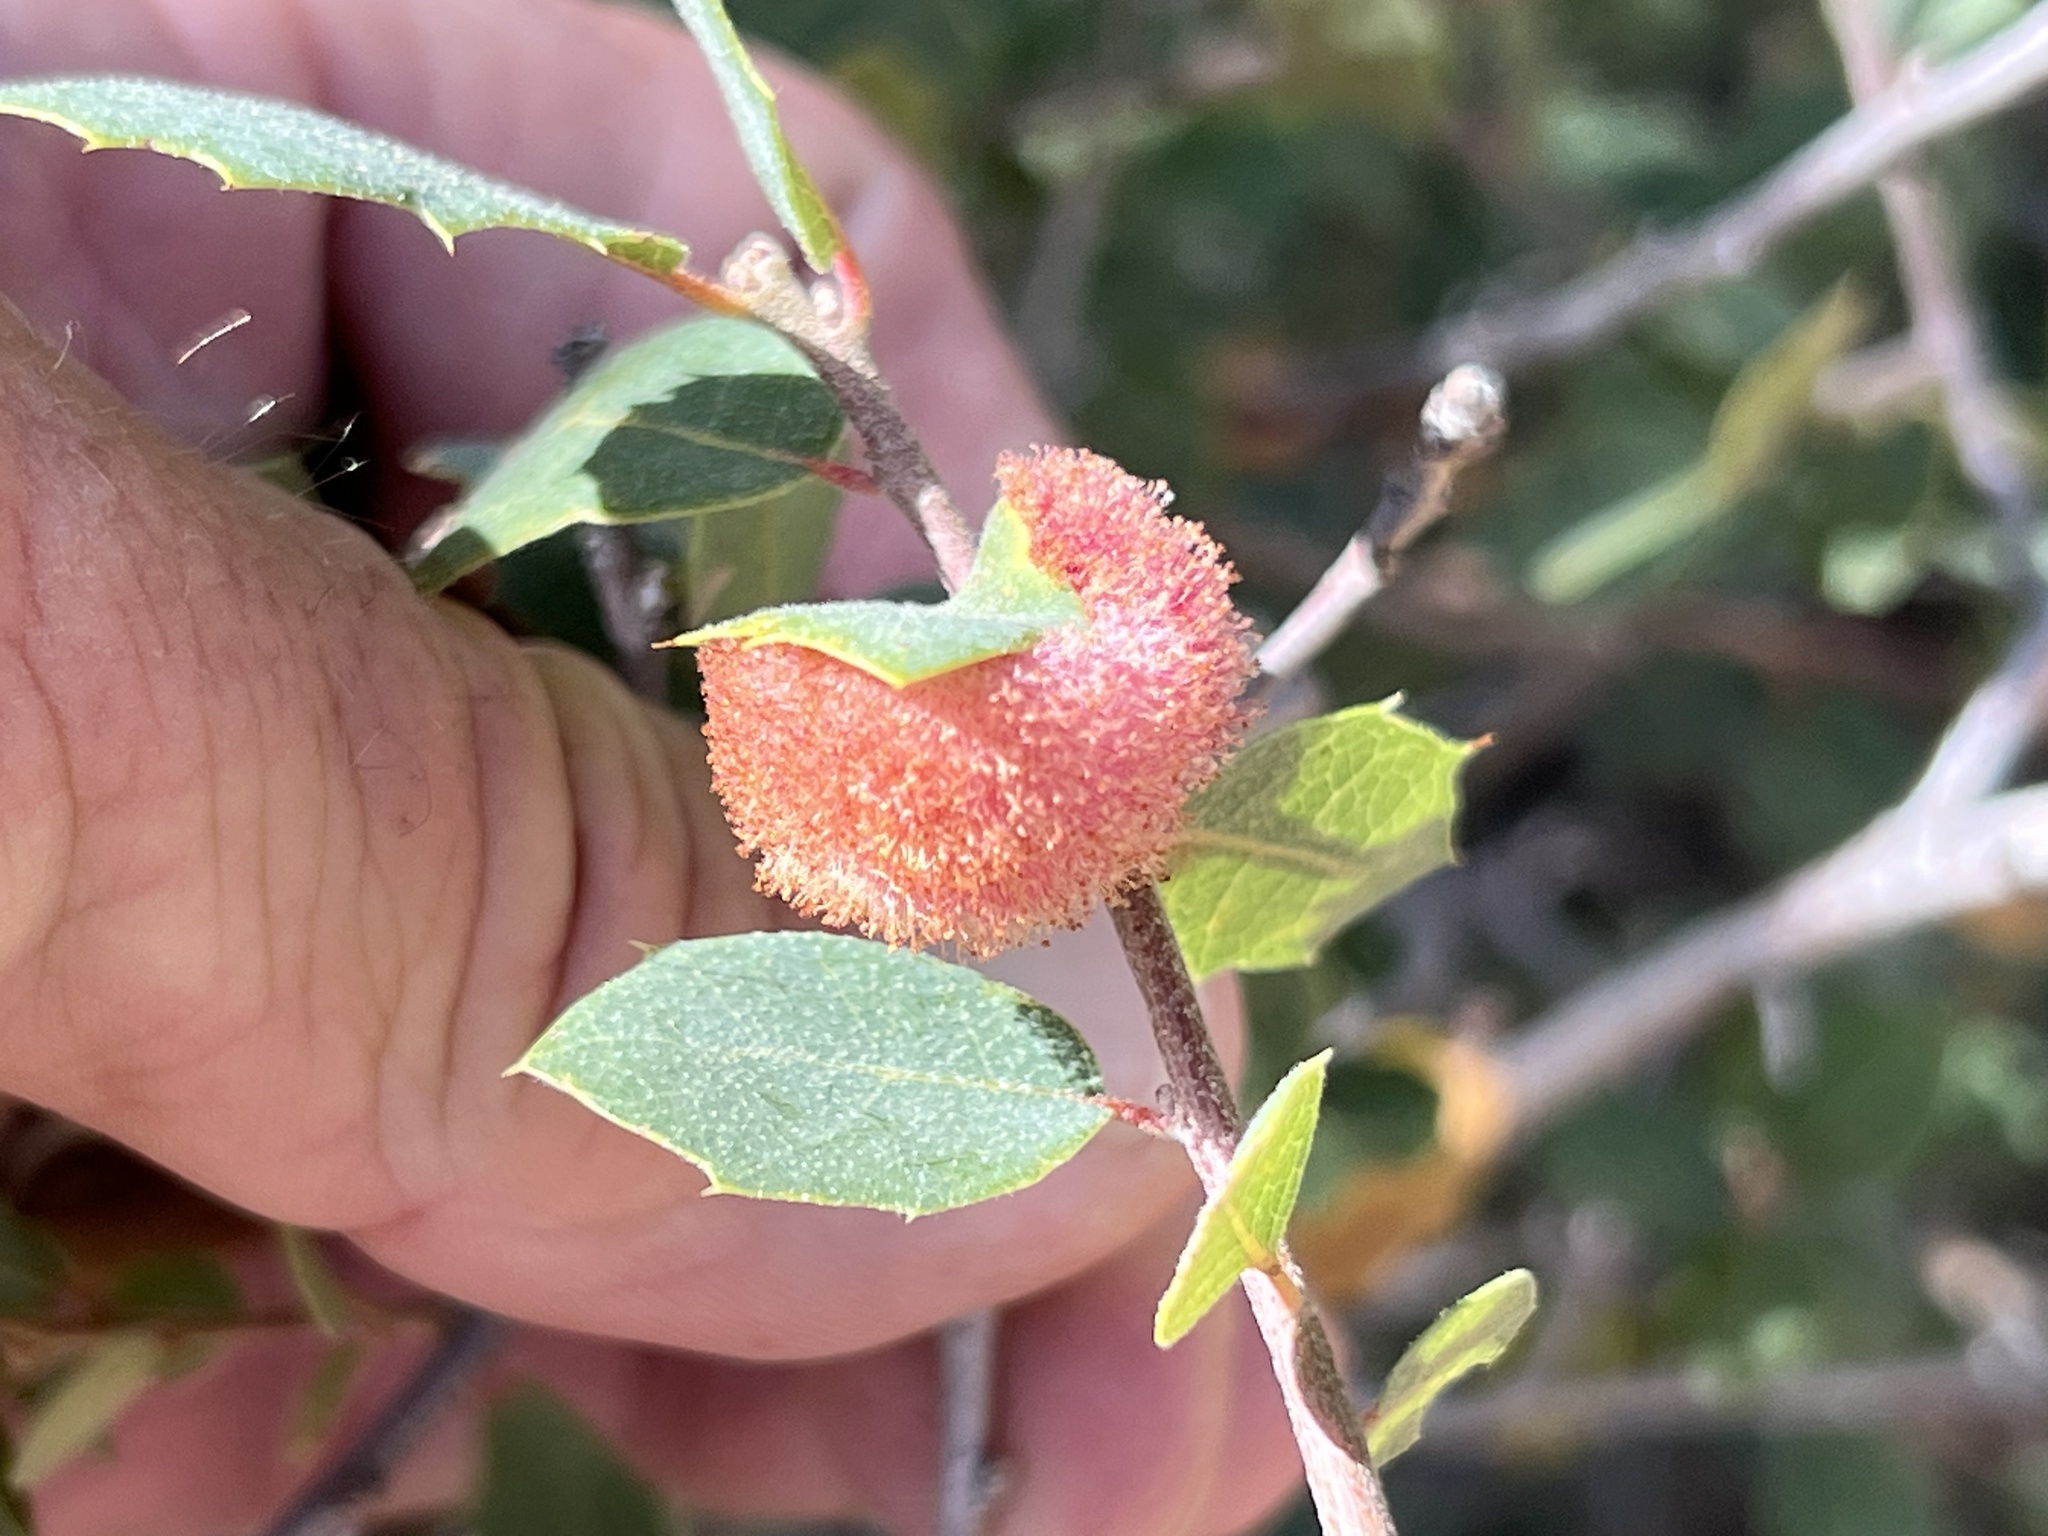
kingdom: Animalia
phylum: Arthropoda
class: Insecta
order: Hymenoptera
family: Cynipidae
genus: Andricus
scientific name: Andricus
